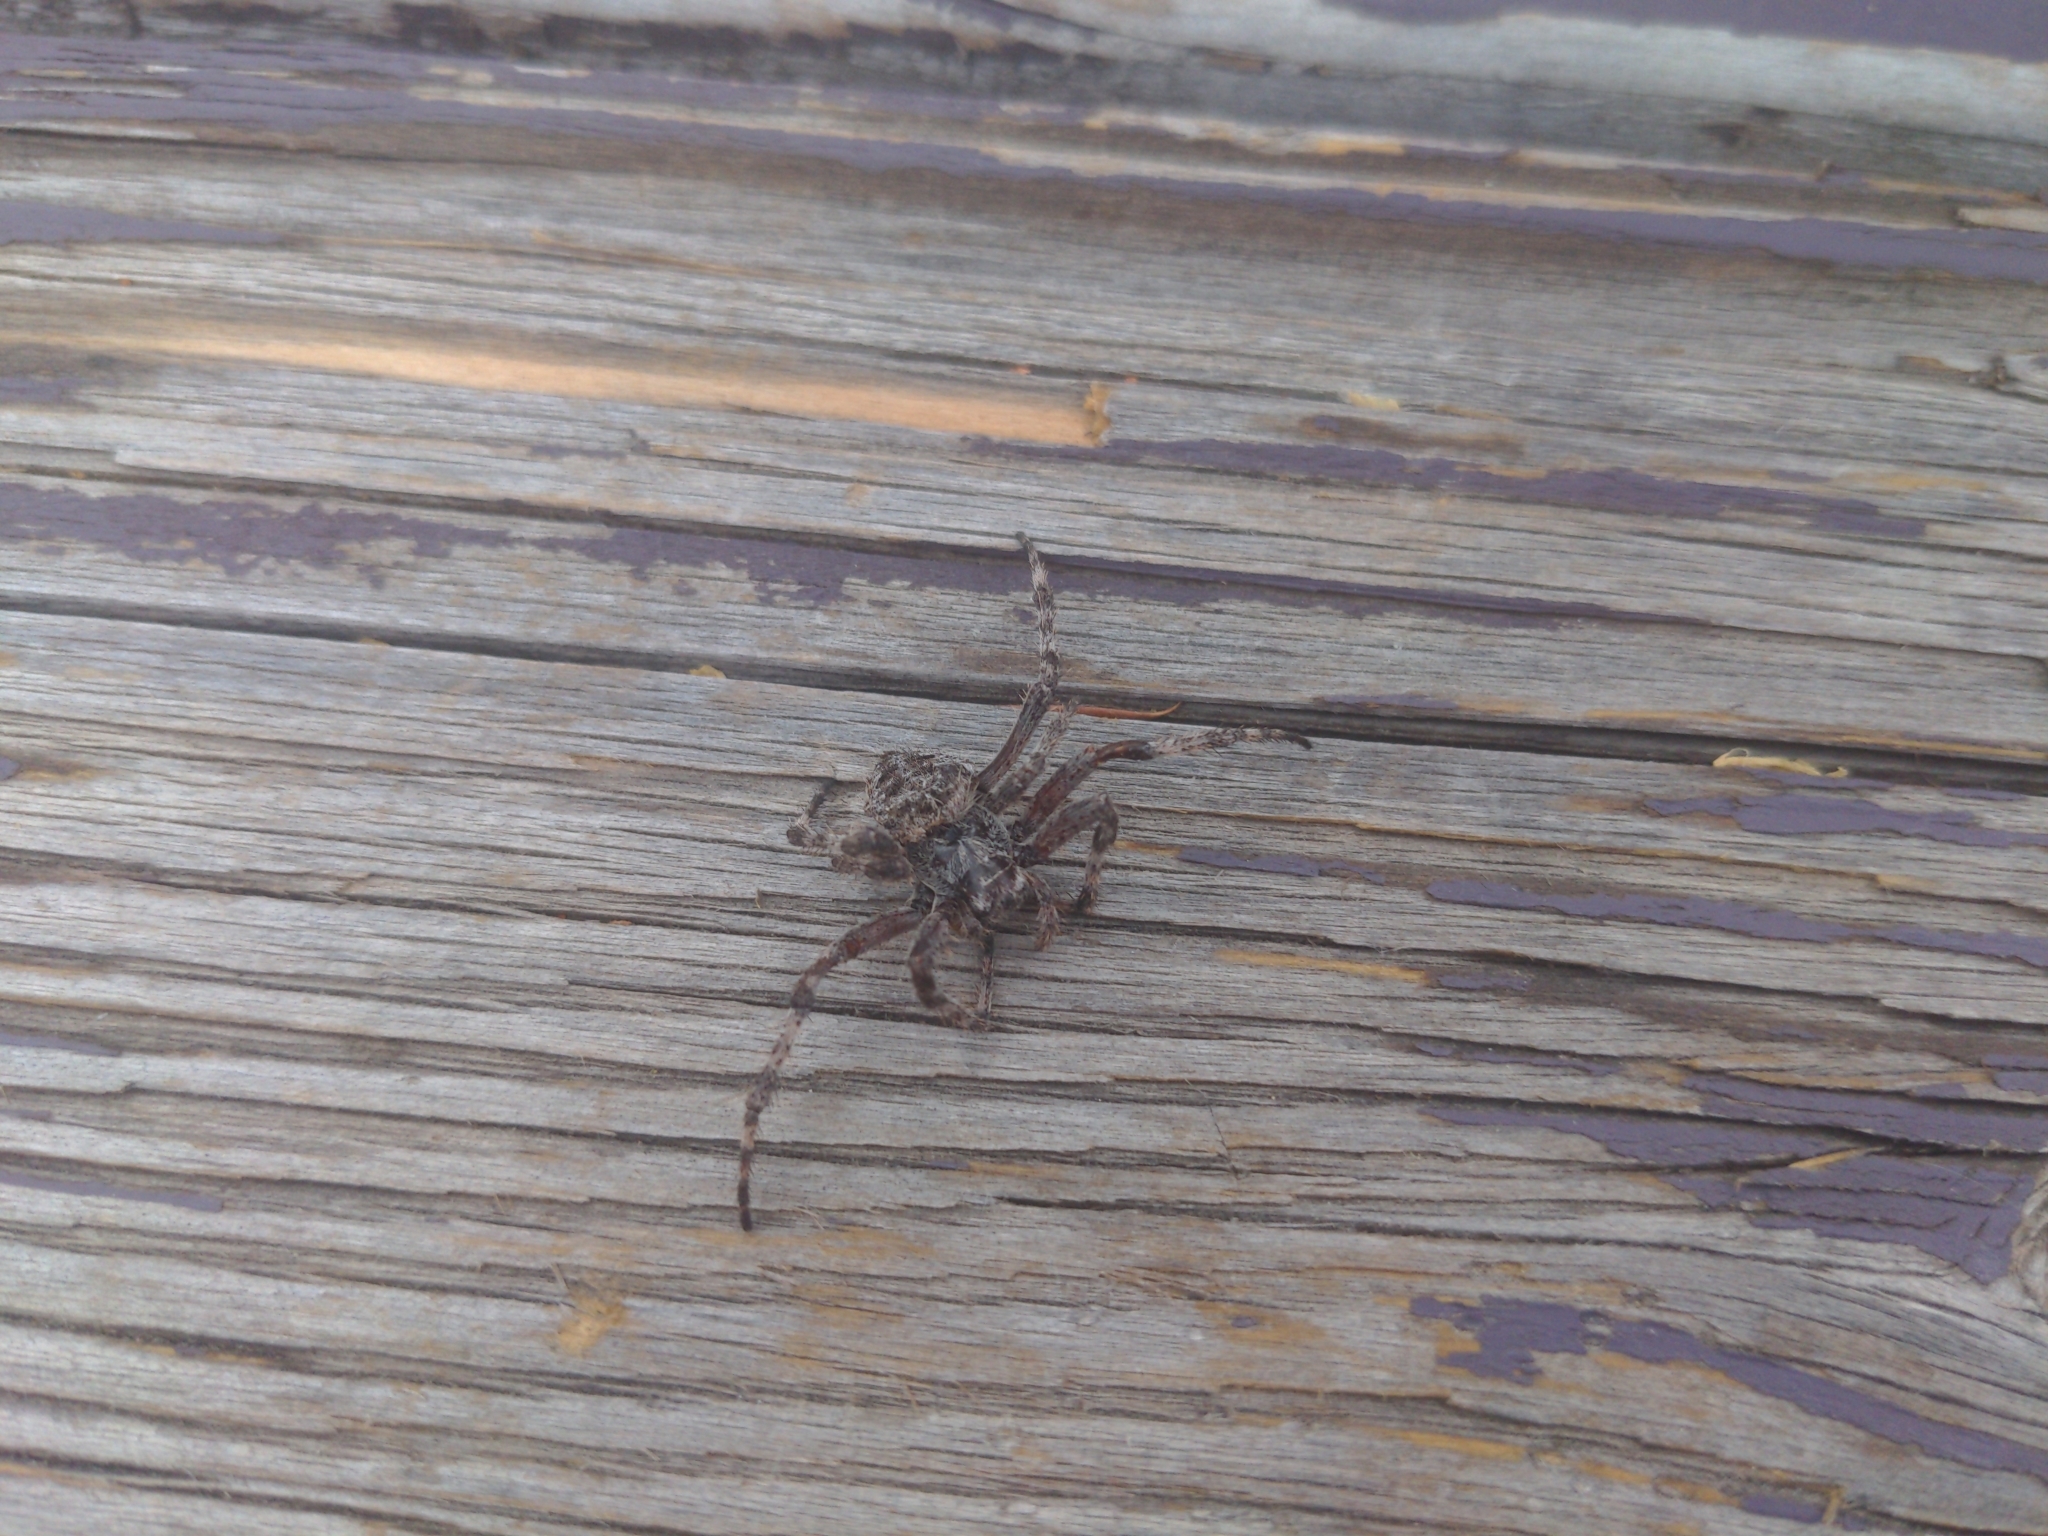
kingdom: Animalia
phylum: Arthropoda
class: Arachnida
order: Araneae
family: Araneidae
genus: Araneus
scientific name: Araneus saevus
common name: Fierce orbweaver
